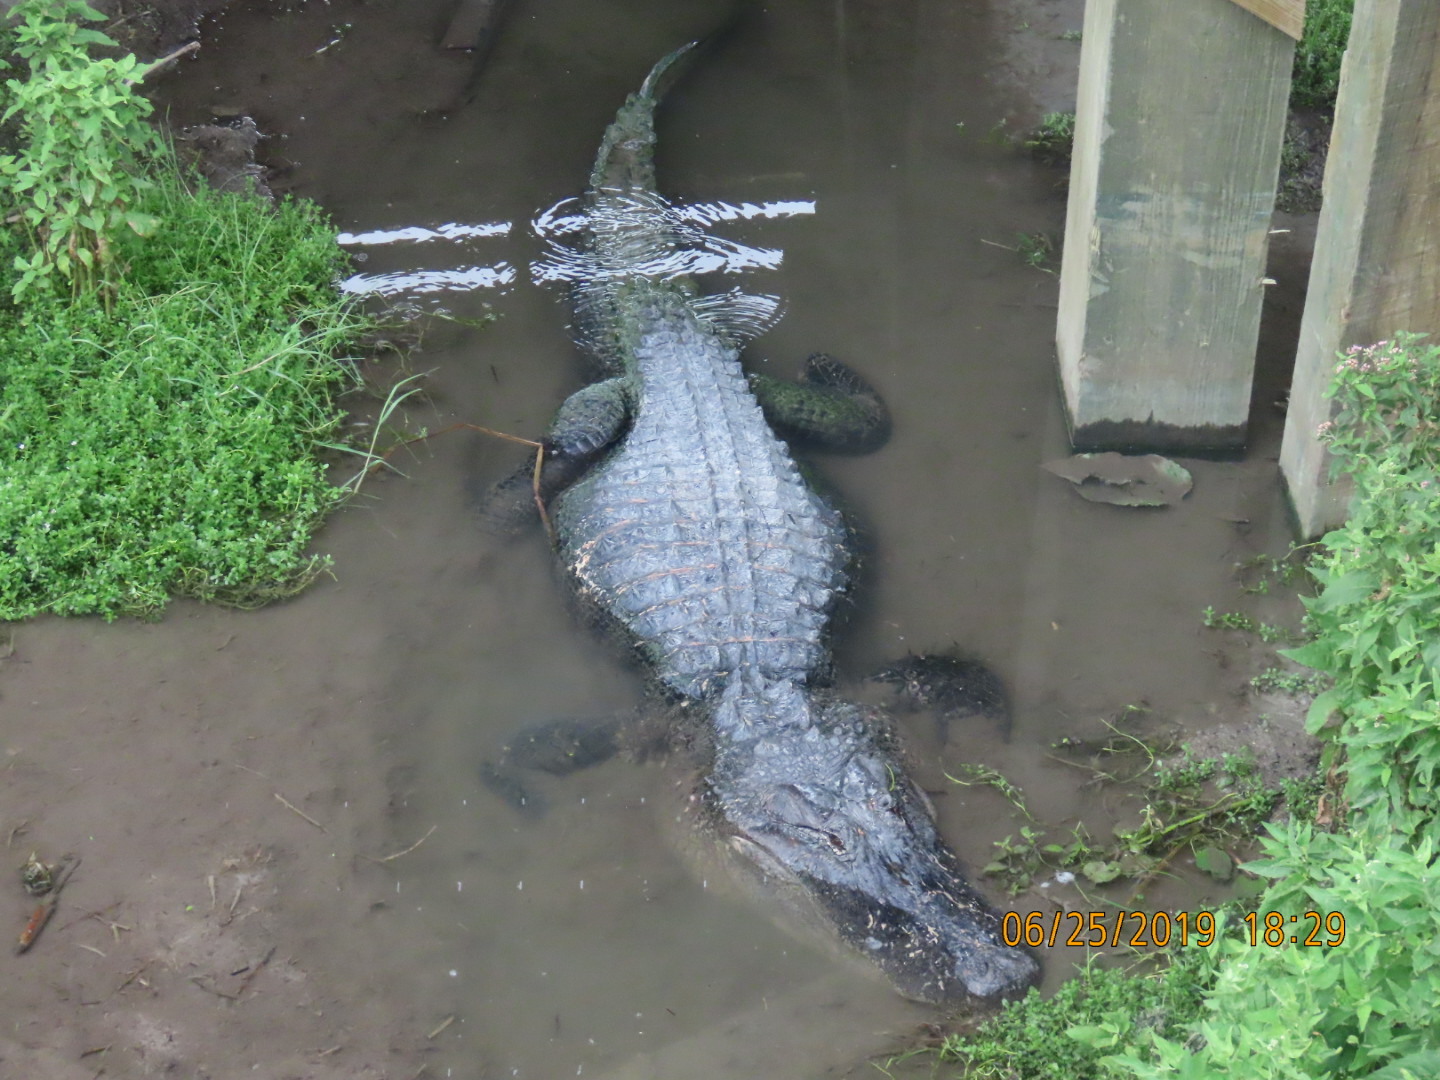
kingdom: Animalia
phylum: Chordata
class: Crocodylia
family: Alligatoridae
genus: Alligator
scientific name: Alligator mississippiensis
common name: American alligator
